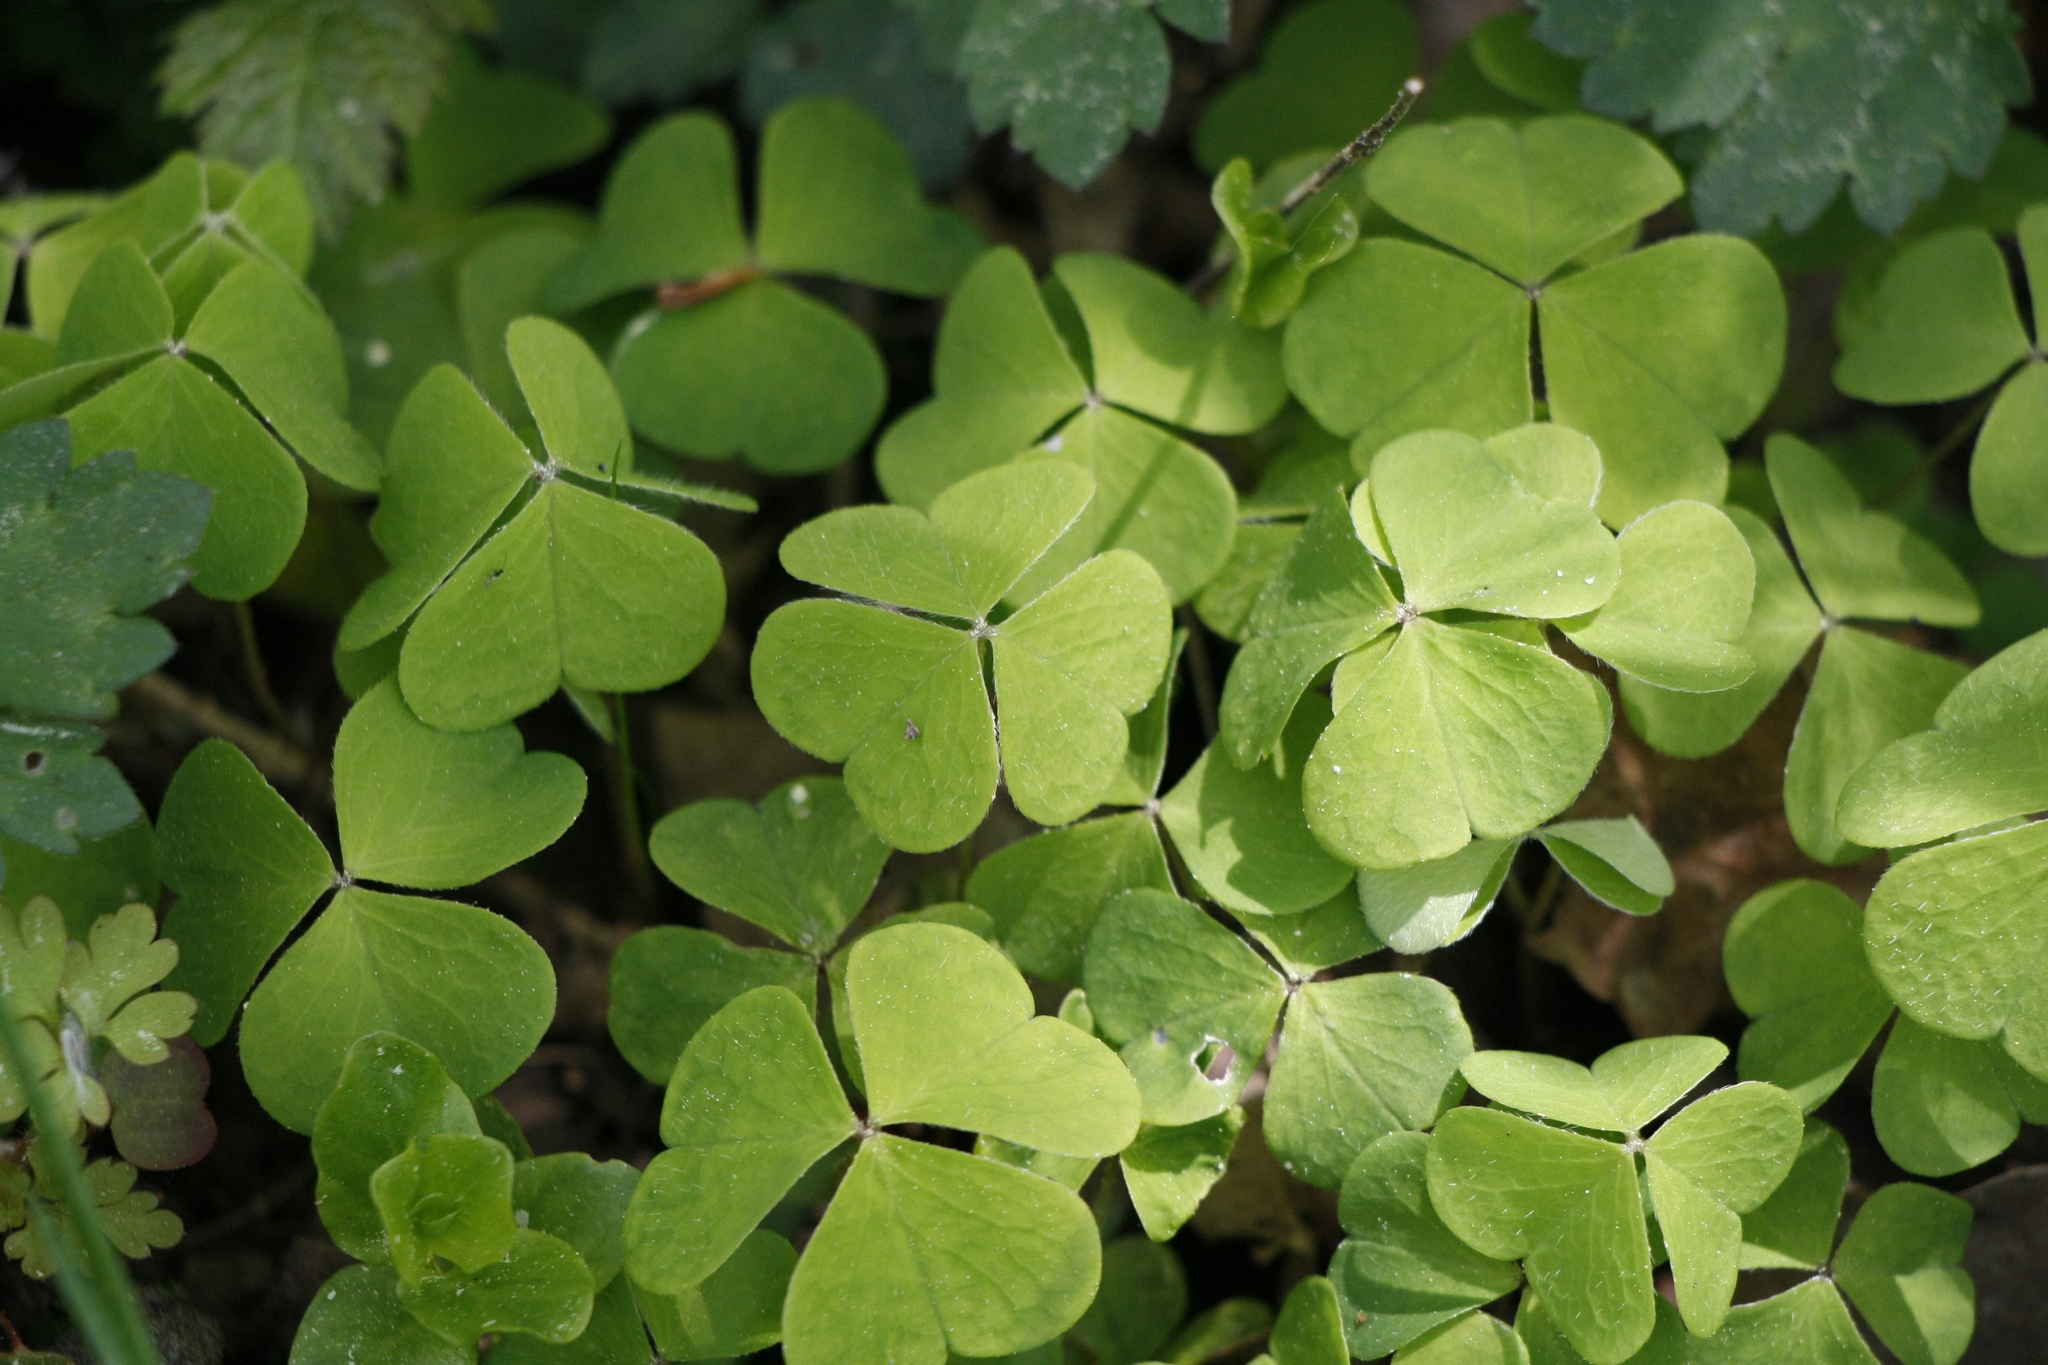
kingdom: Plantae
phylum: Tracheophyta
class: Magnoliopsida
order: Oxalidales
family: Oxalidaceae
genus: Oxalis
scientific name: Oxalis acetosella
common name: Wood-sorrel
